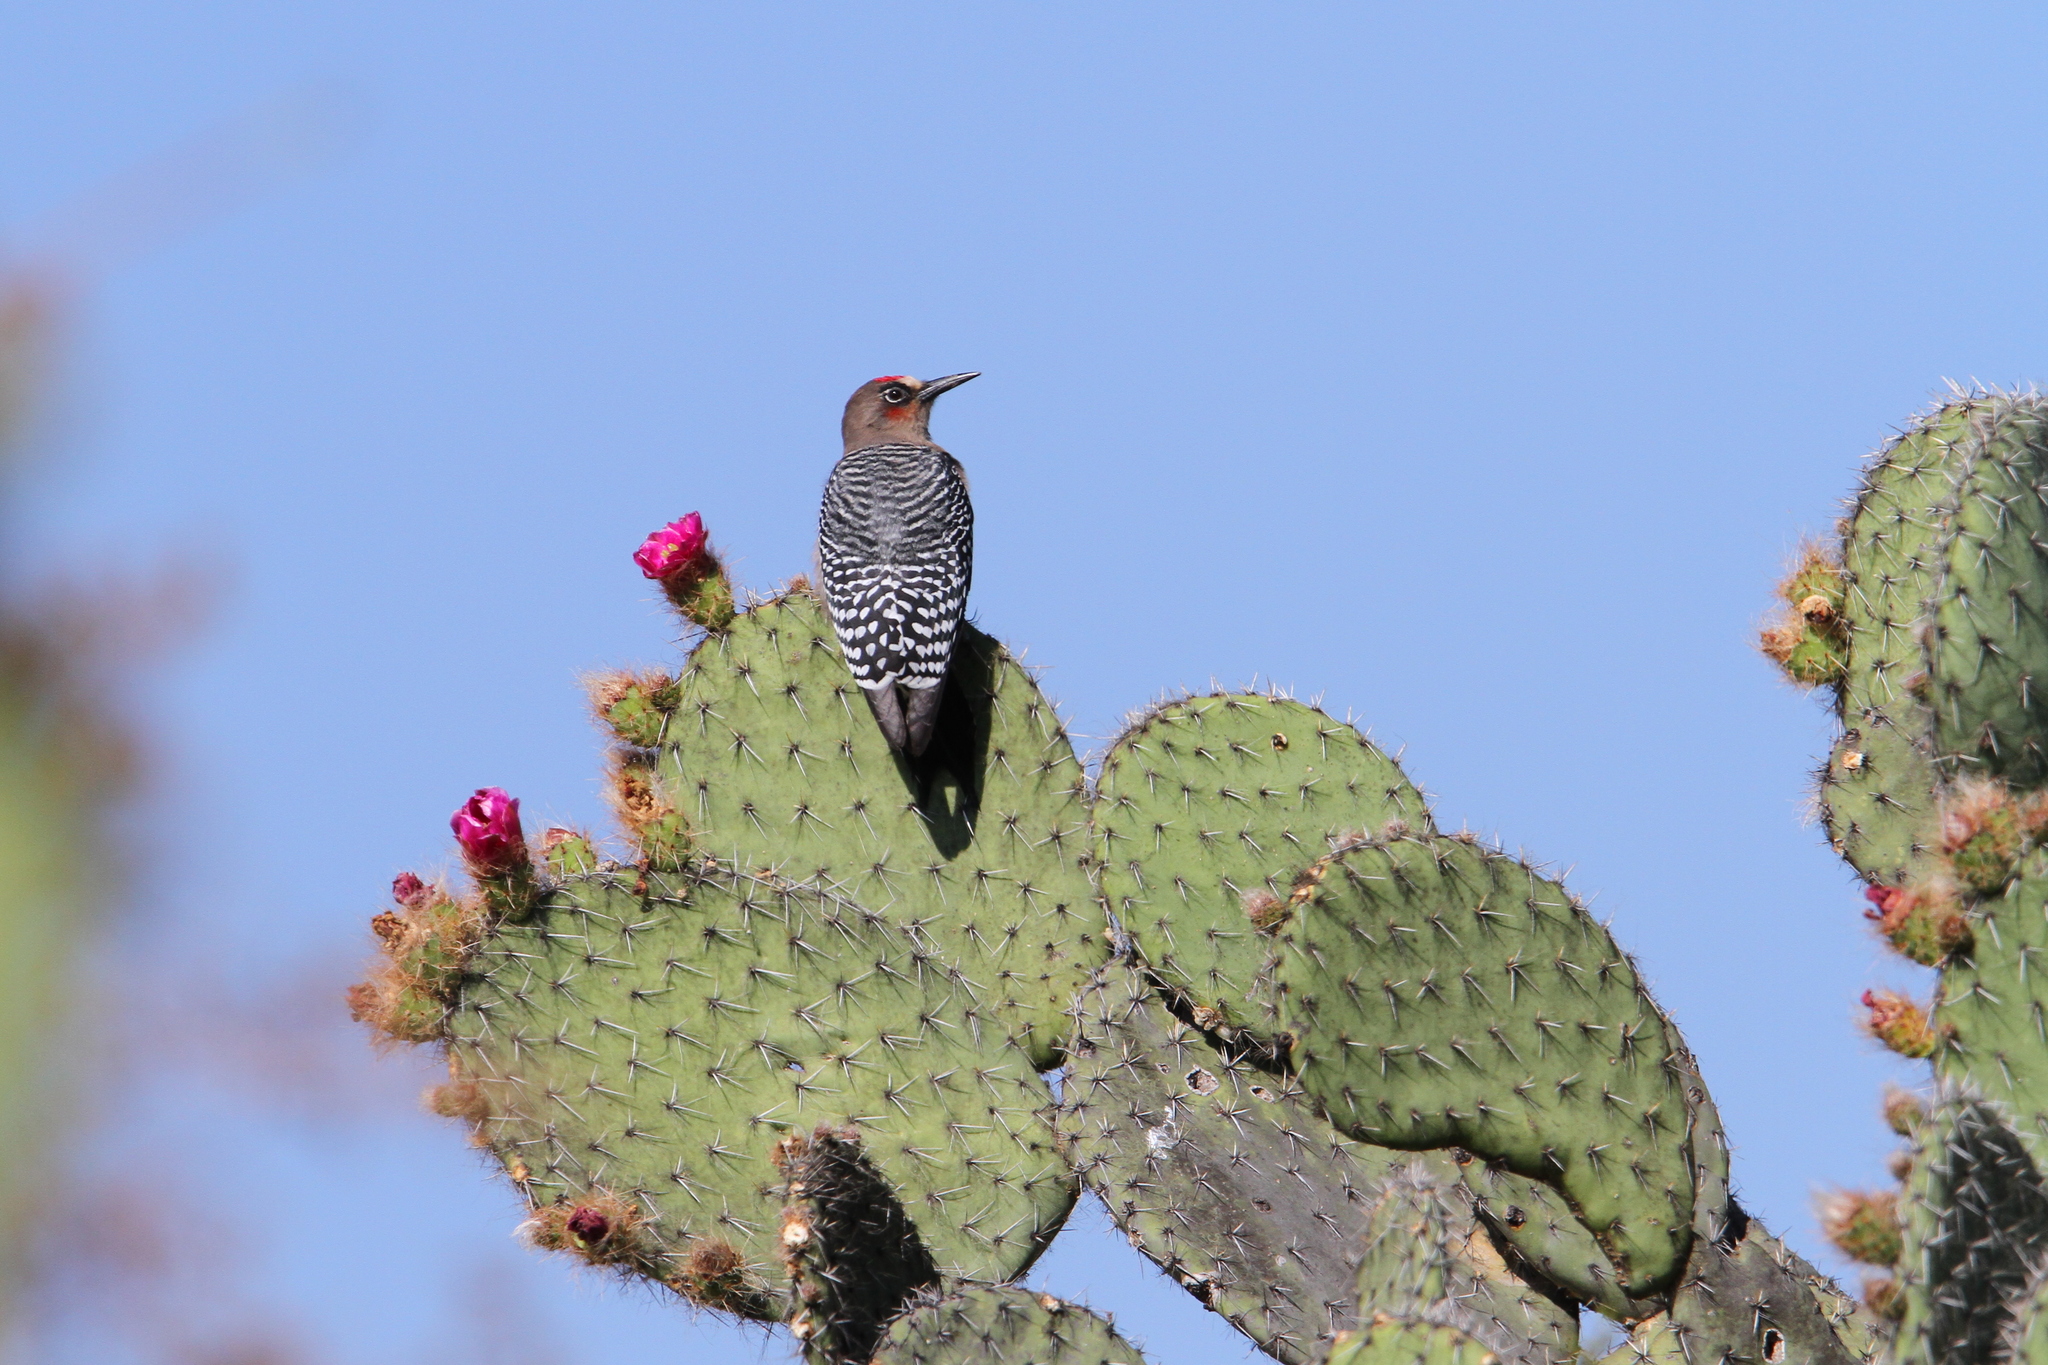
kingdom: Animalia
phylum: Chordata
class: Aves
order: Piciformes
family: Picidae
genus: Melanerpes
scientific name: Melanerpes hypopolius
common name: Grey-breasted woodpecker
